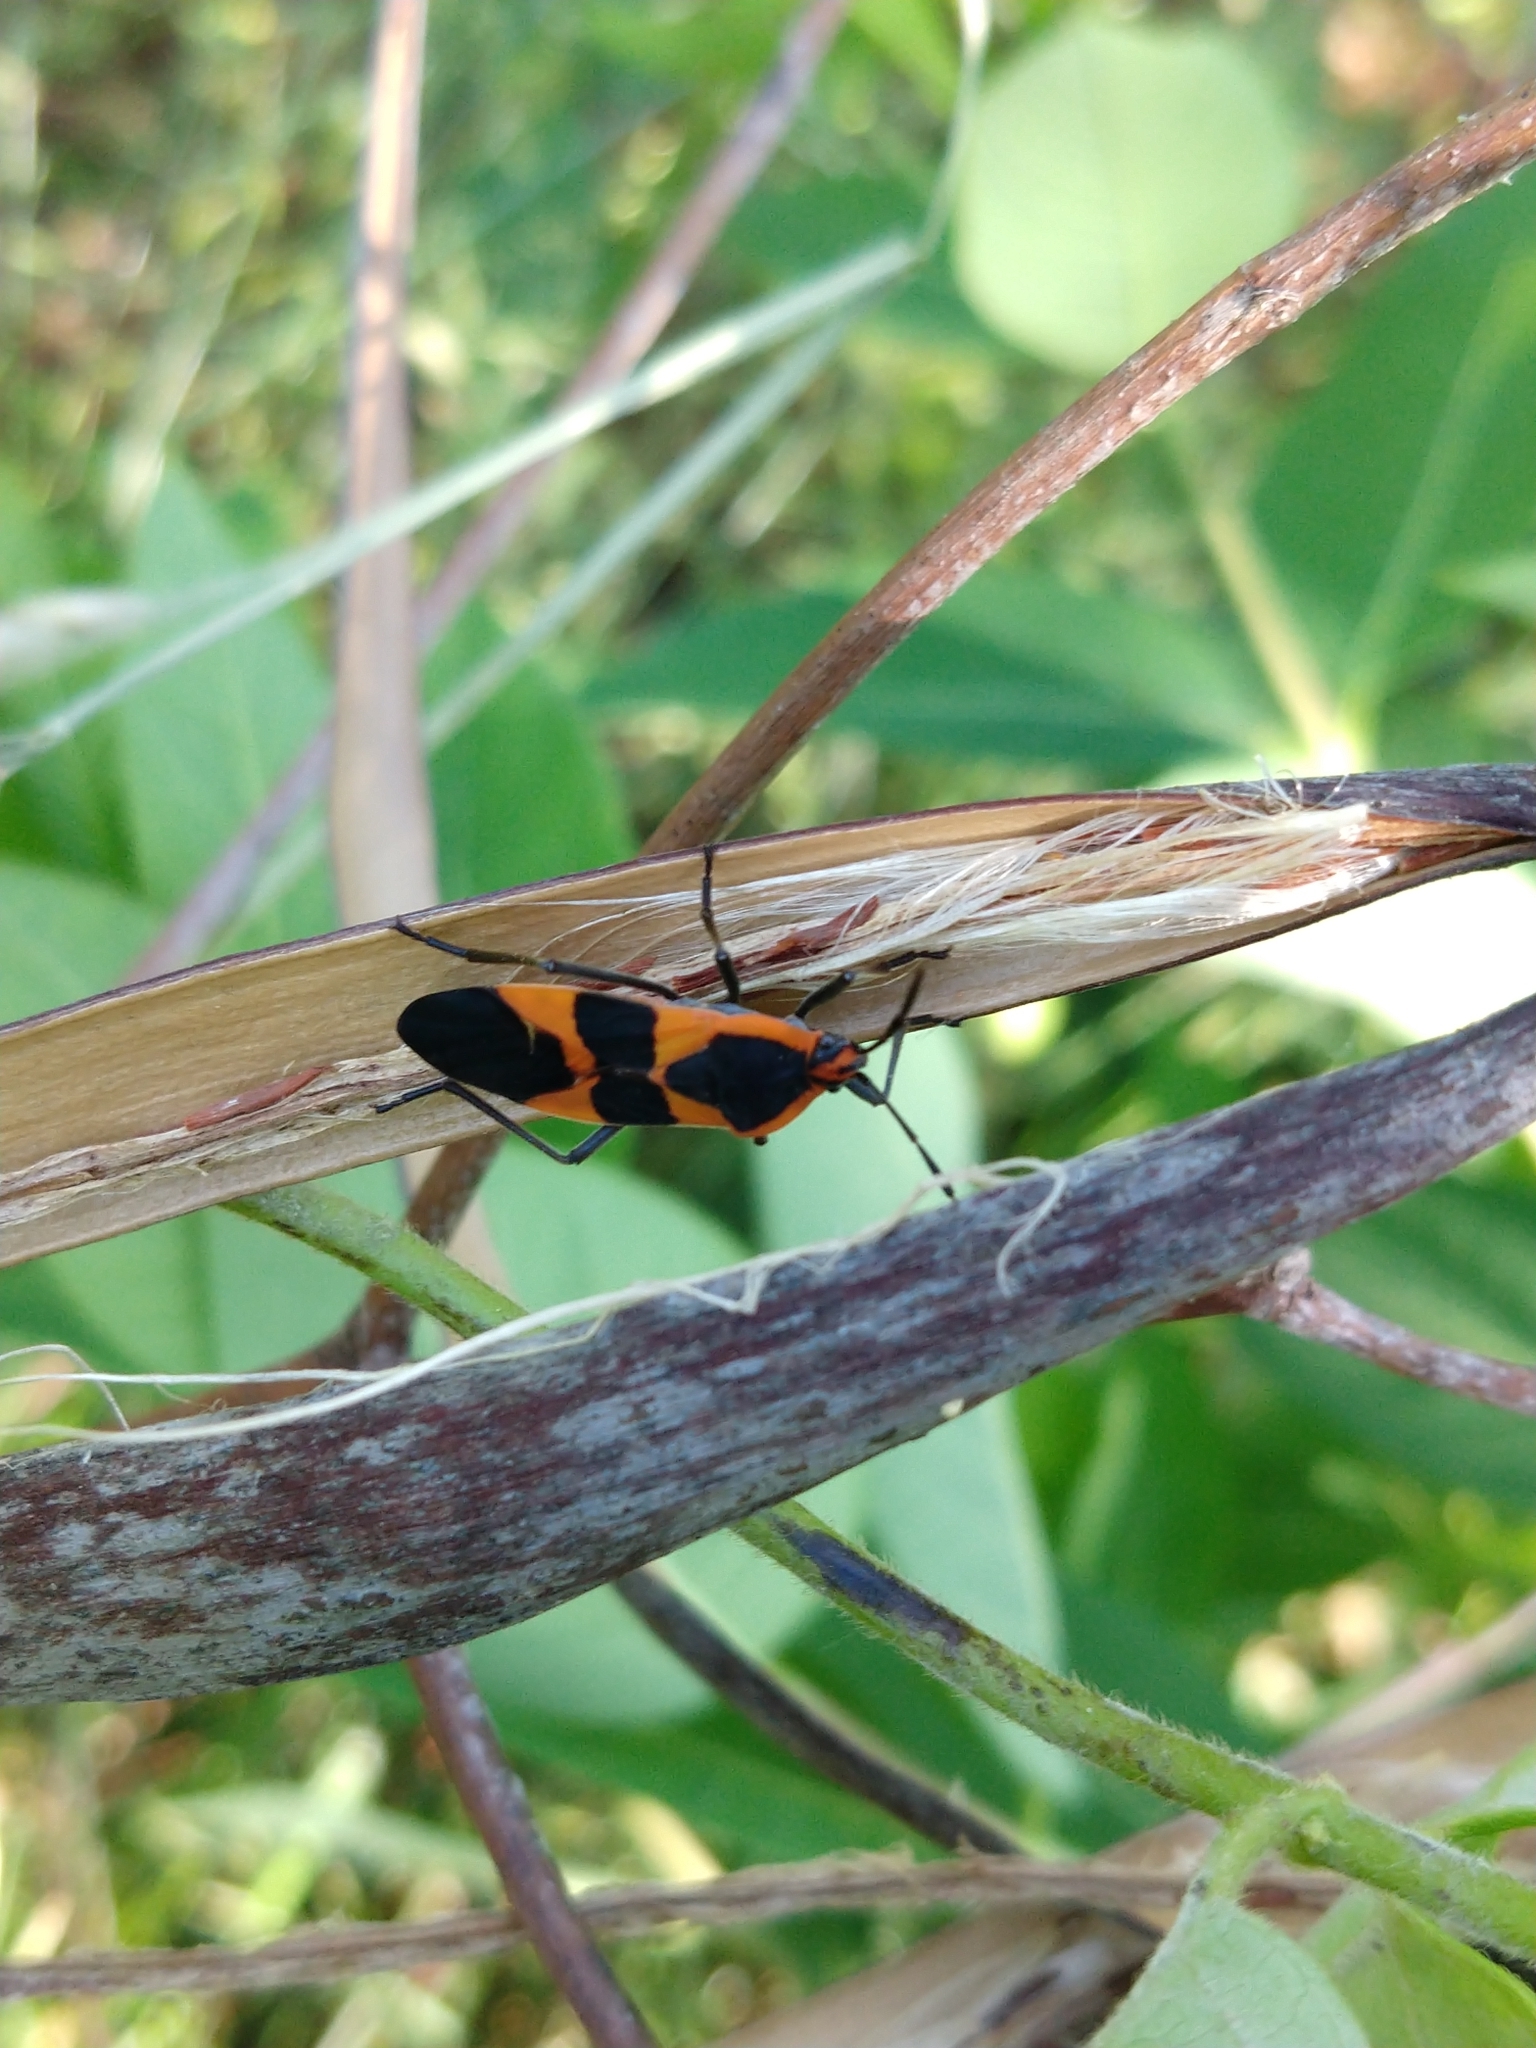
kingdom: Animalia
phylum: Arthropoda
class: Insecta
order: Hemiptera
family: Lygaeidae
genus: Oncopeltus
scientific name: Oncopeltus fasciatus
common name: Large milkweed bug
